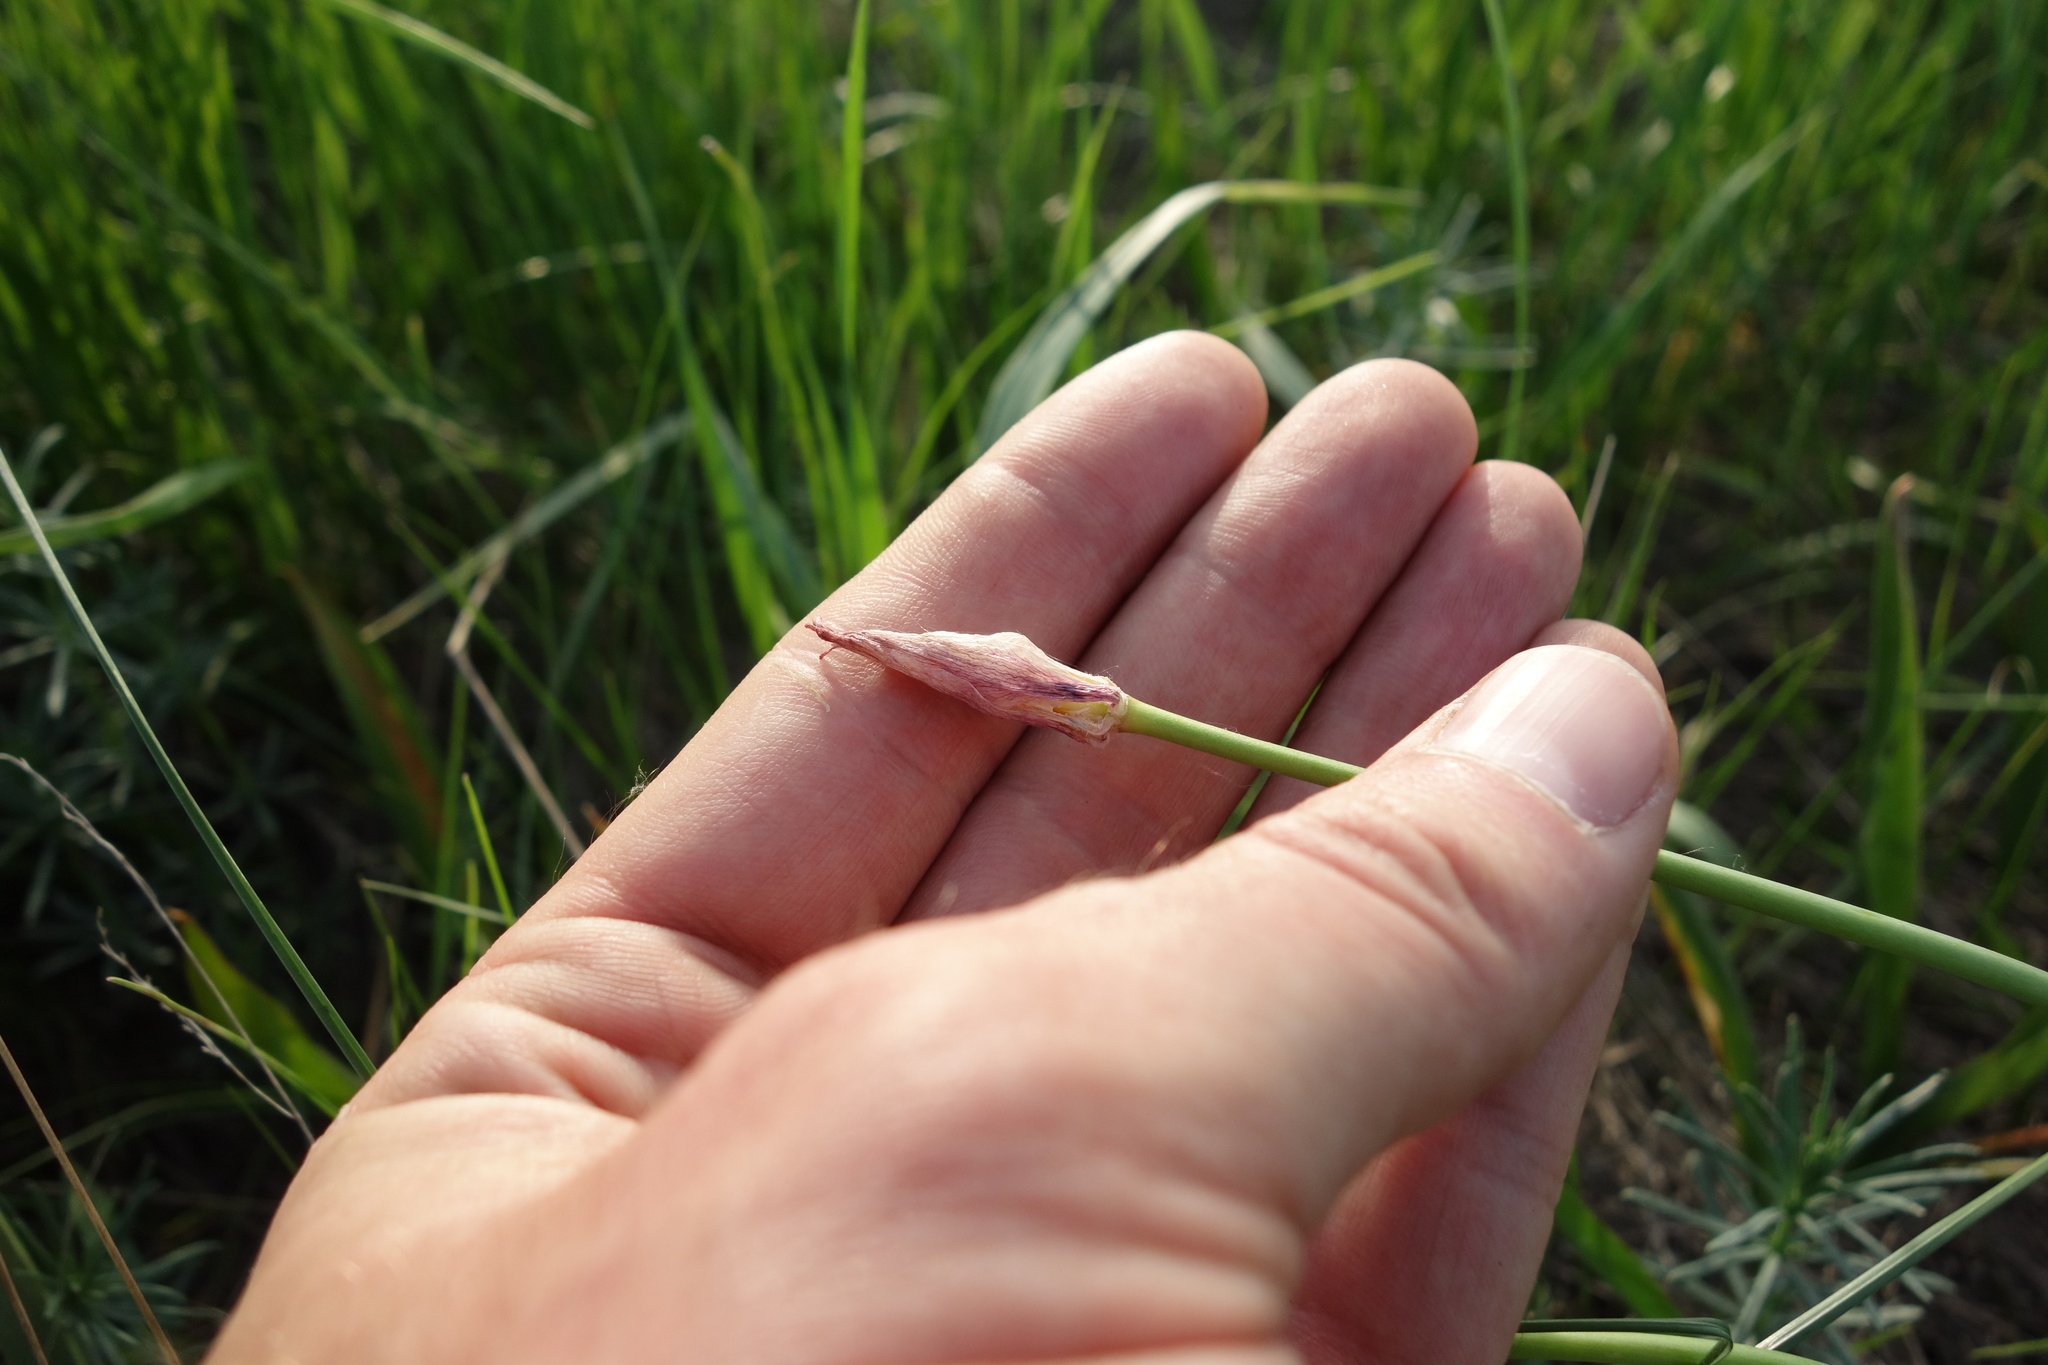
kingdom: Plantae
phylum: Tracheophyta
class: Liliopsida
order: Liliales
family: Liliaceae
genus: Tulipa
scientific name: Tulipa sylvestris
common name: Wild tulip
